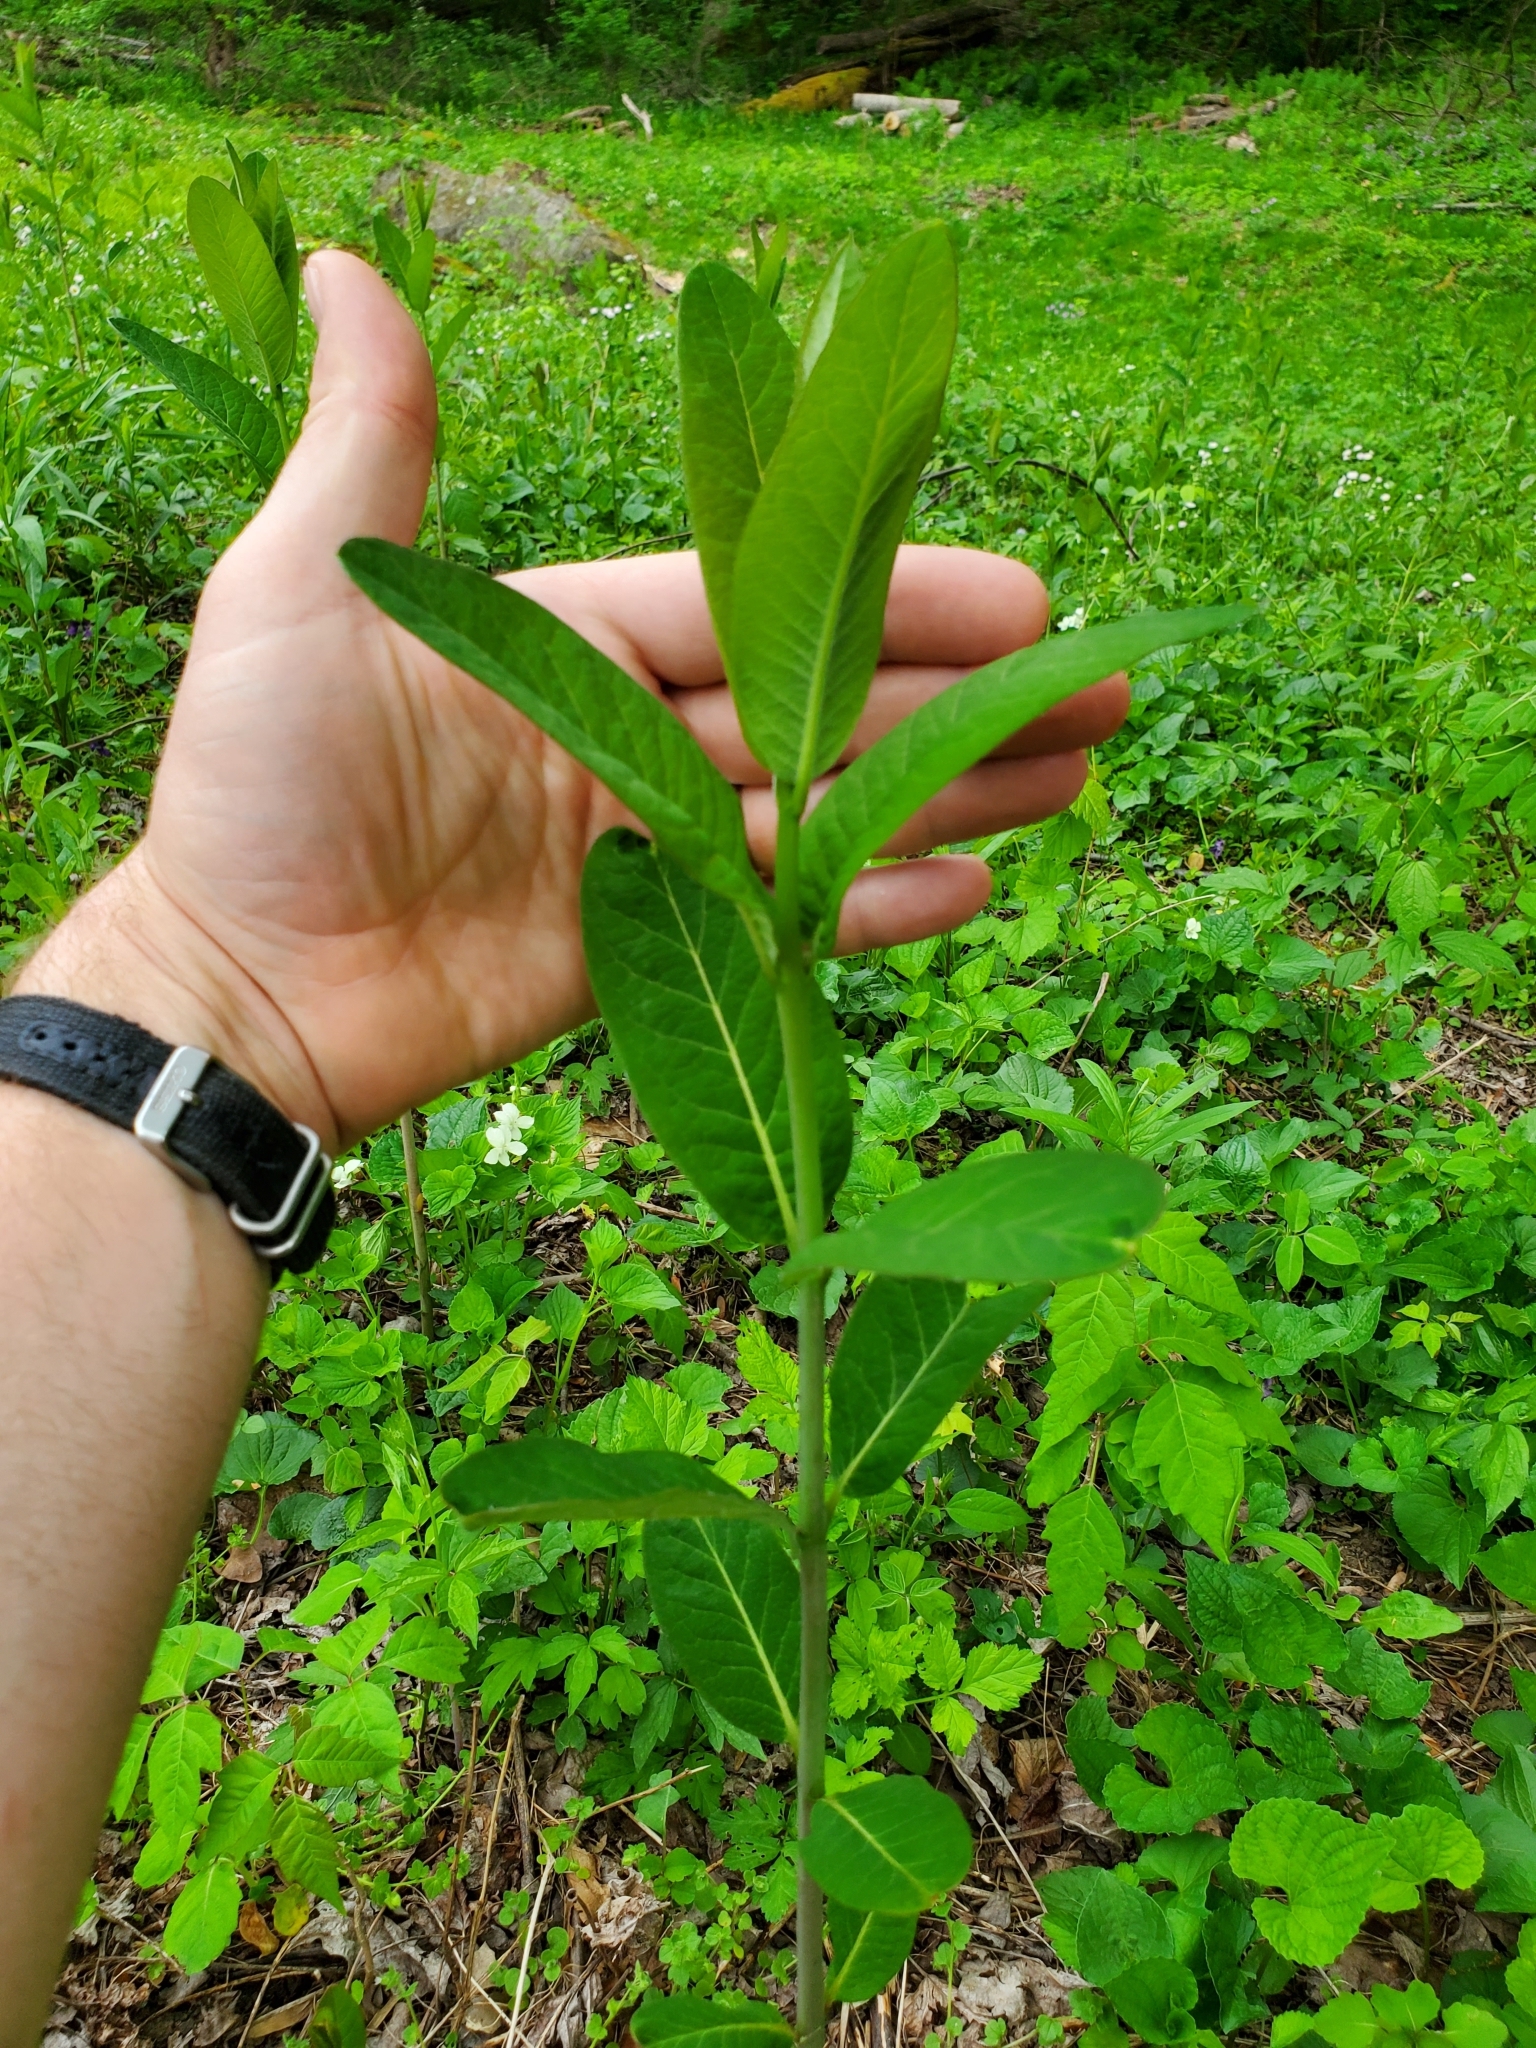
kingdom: Plantae
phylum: Tracheophyta
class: Magnoliopsida
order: Gentianales
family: Apocynaceae
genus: Apocynum
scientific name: Apocynum cannabinum
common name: Hemp dogbane
